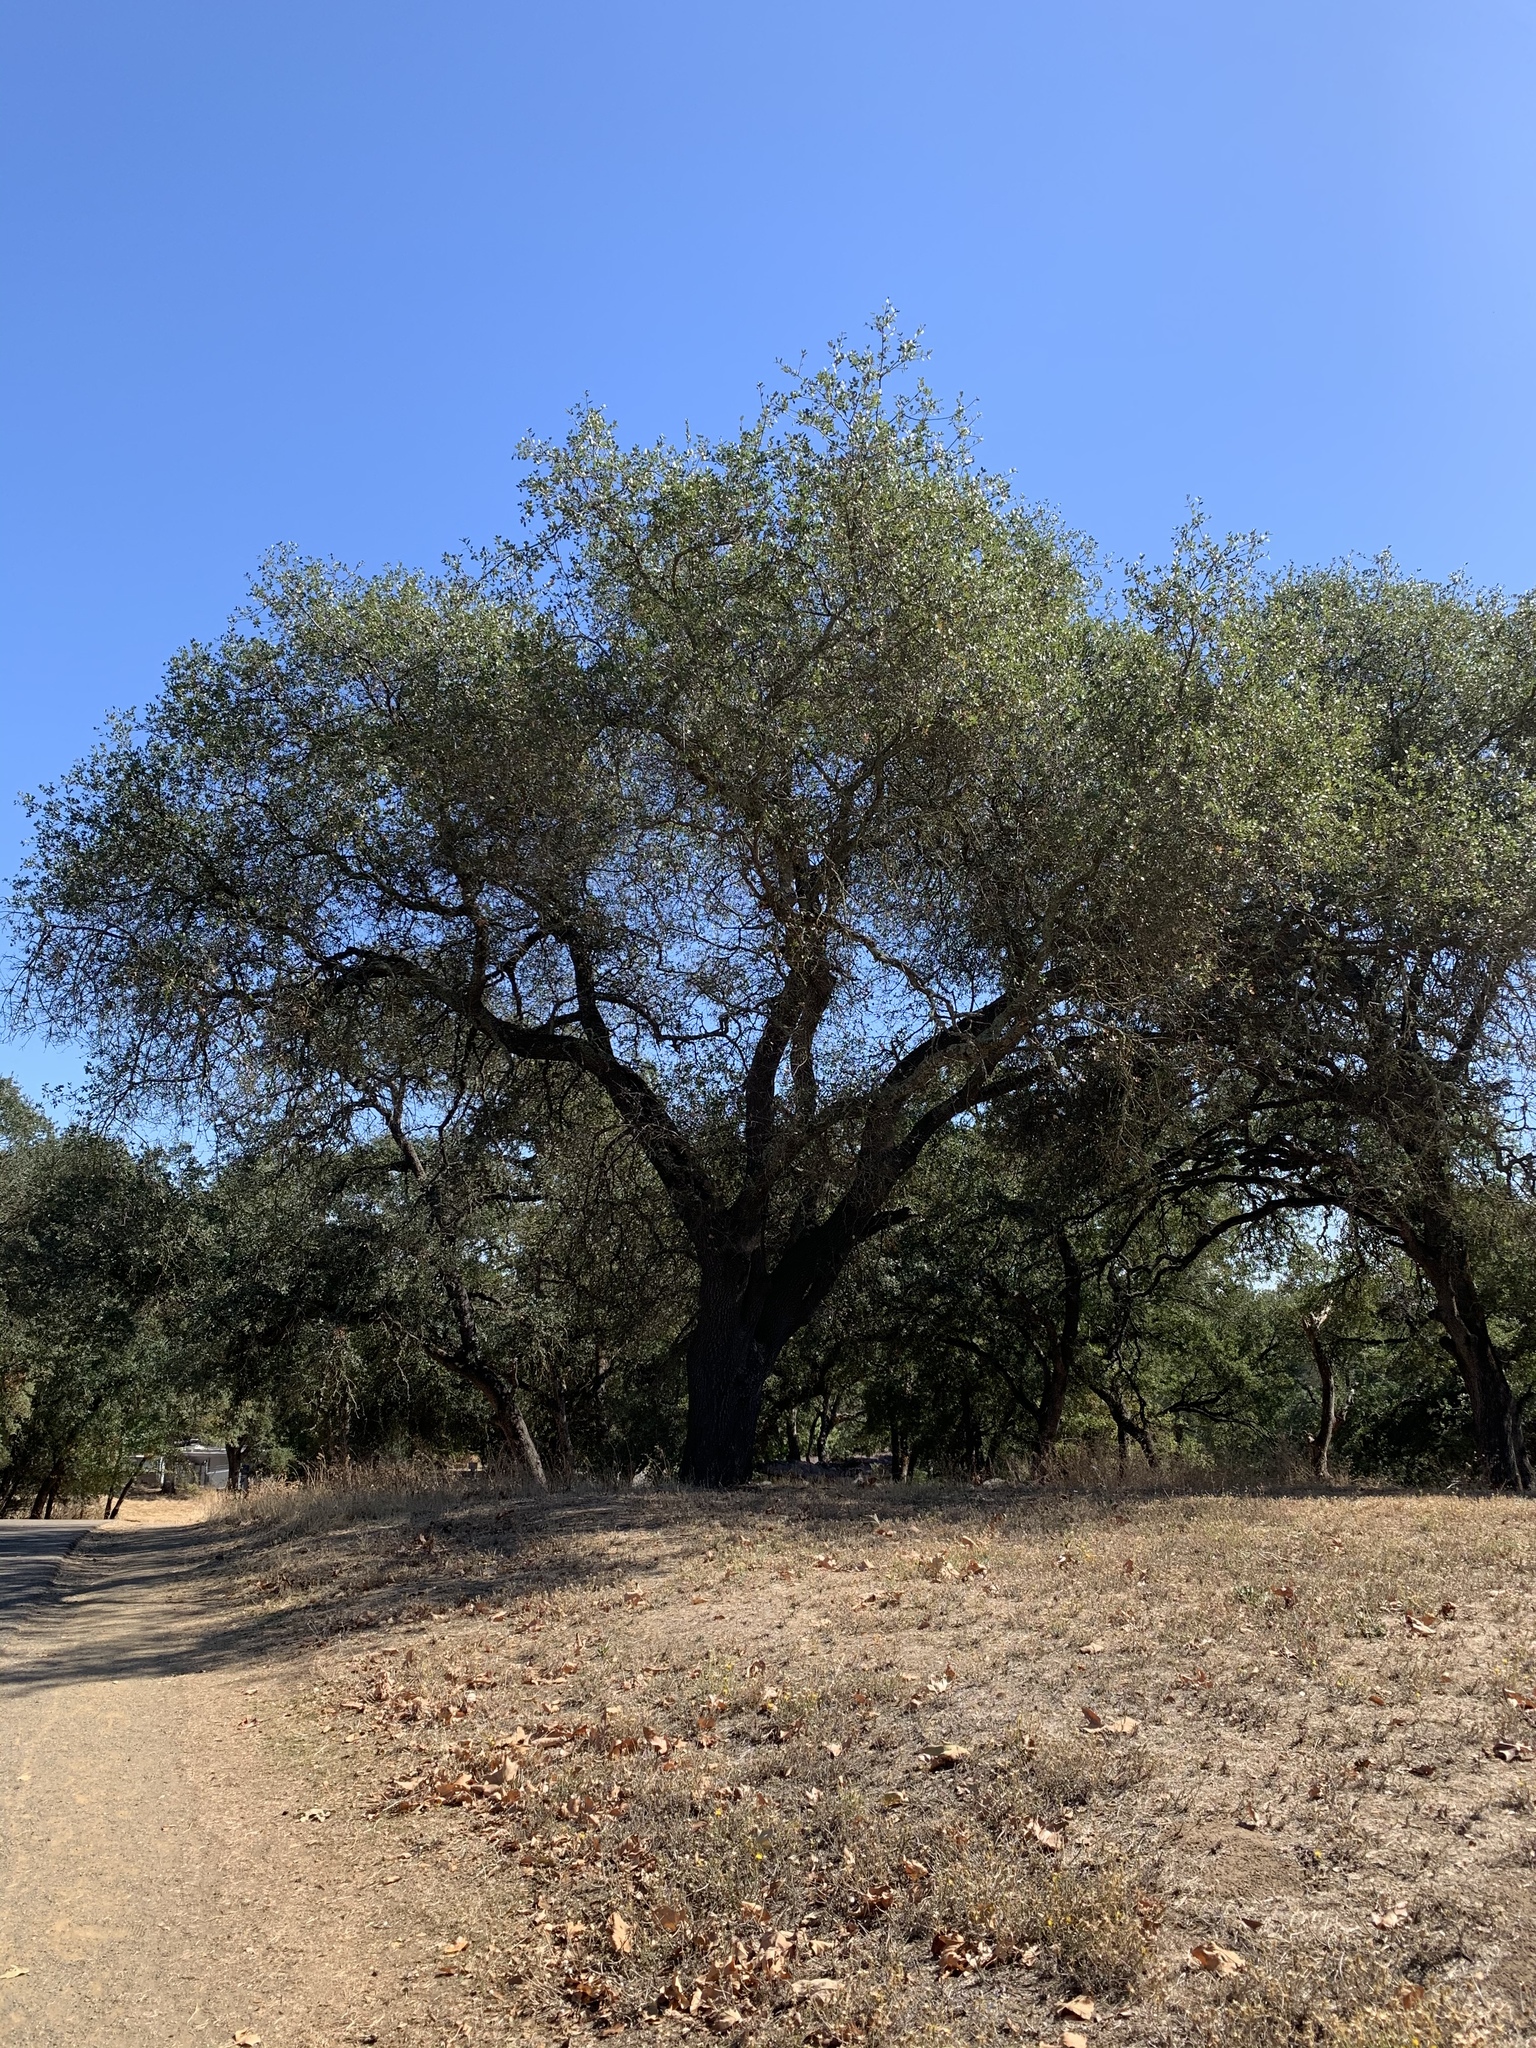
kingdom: Plantae
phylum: Tracheophyta
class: Magnoliopsida
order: Fagales
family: Fagaceae
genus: Quercus
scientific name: Quercus wislizeni
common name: Interior live oak
